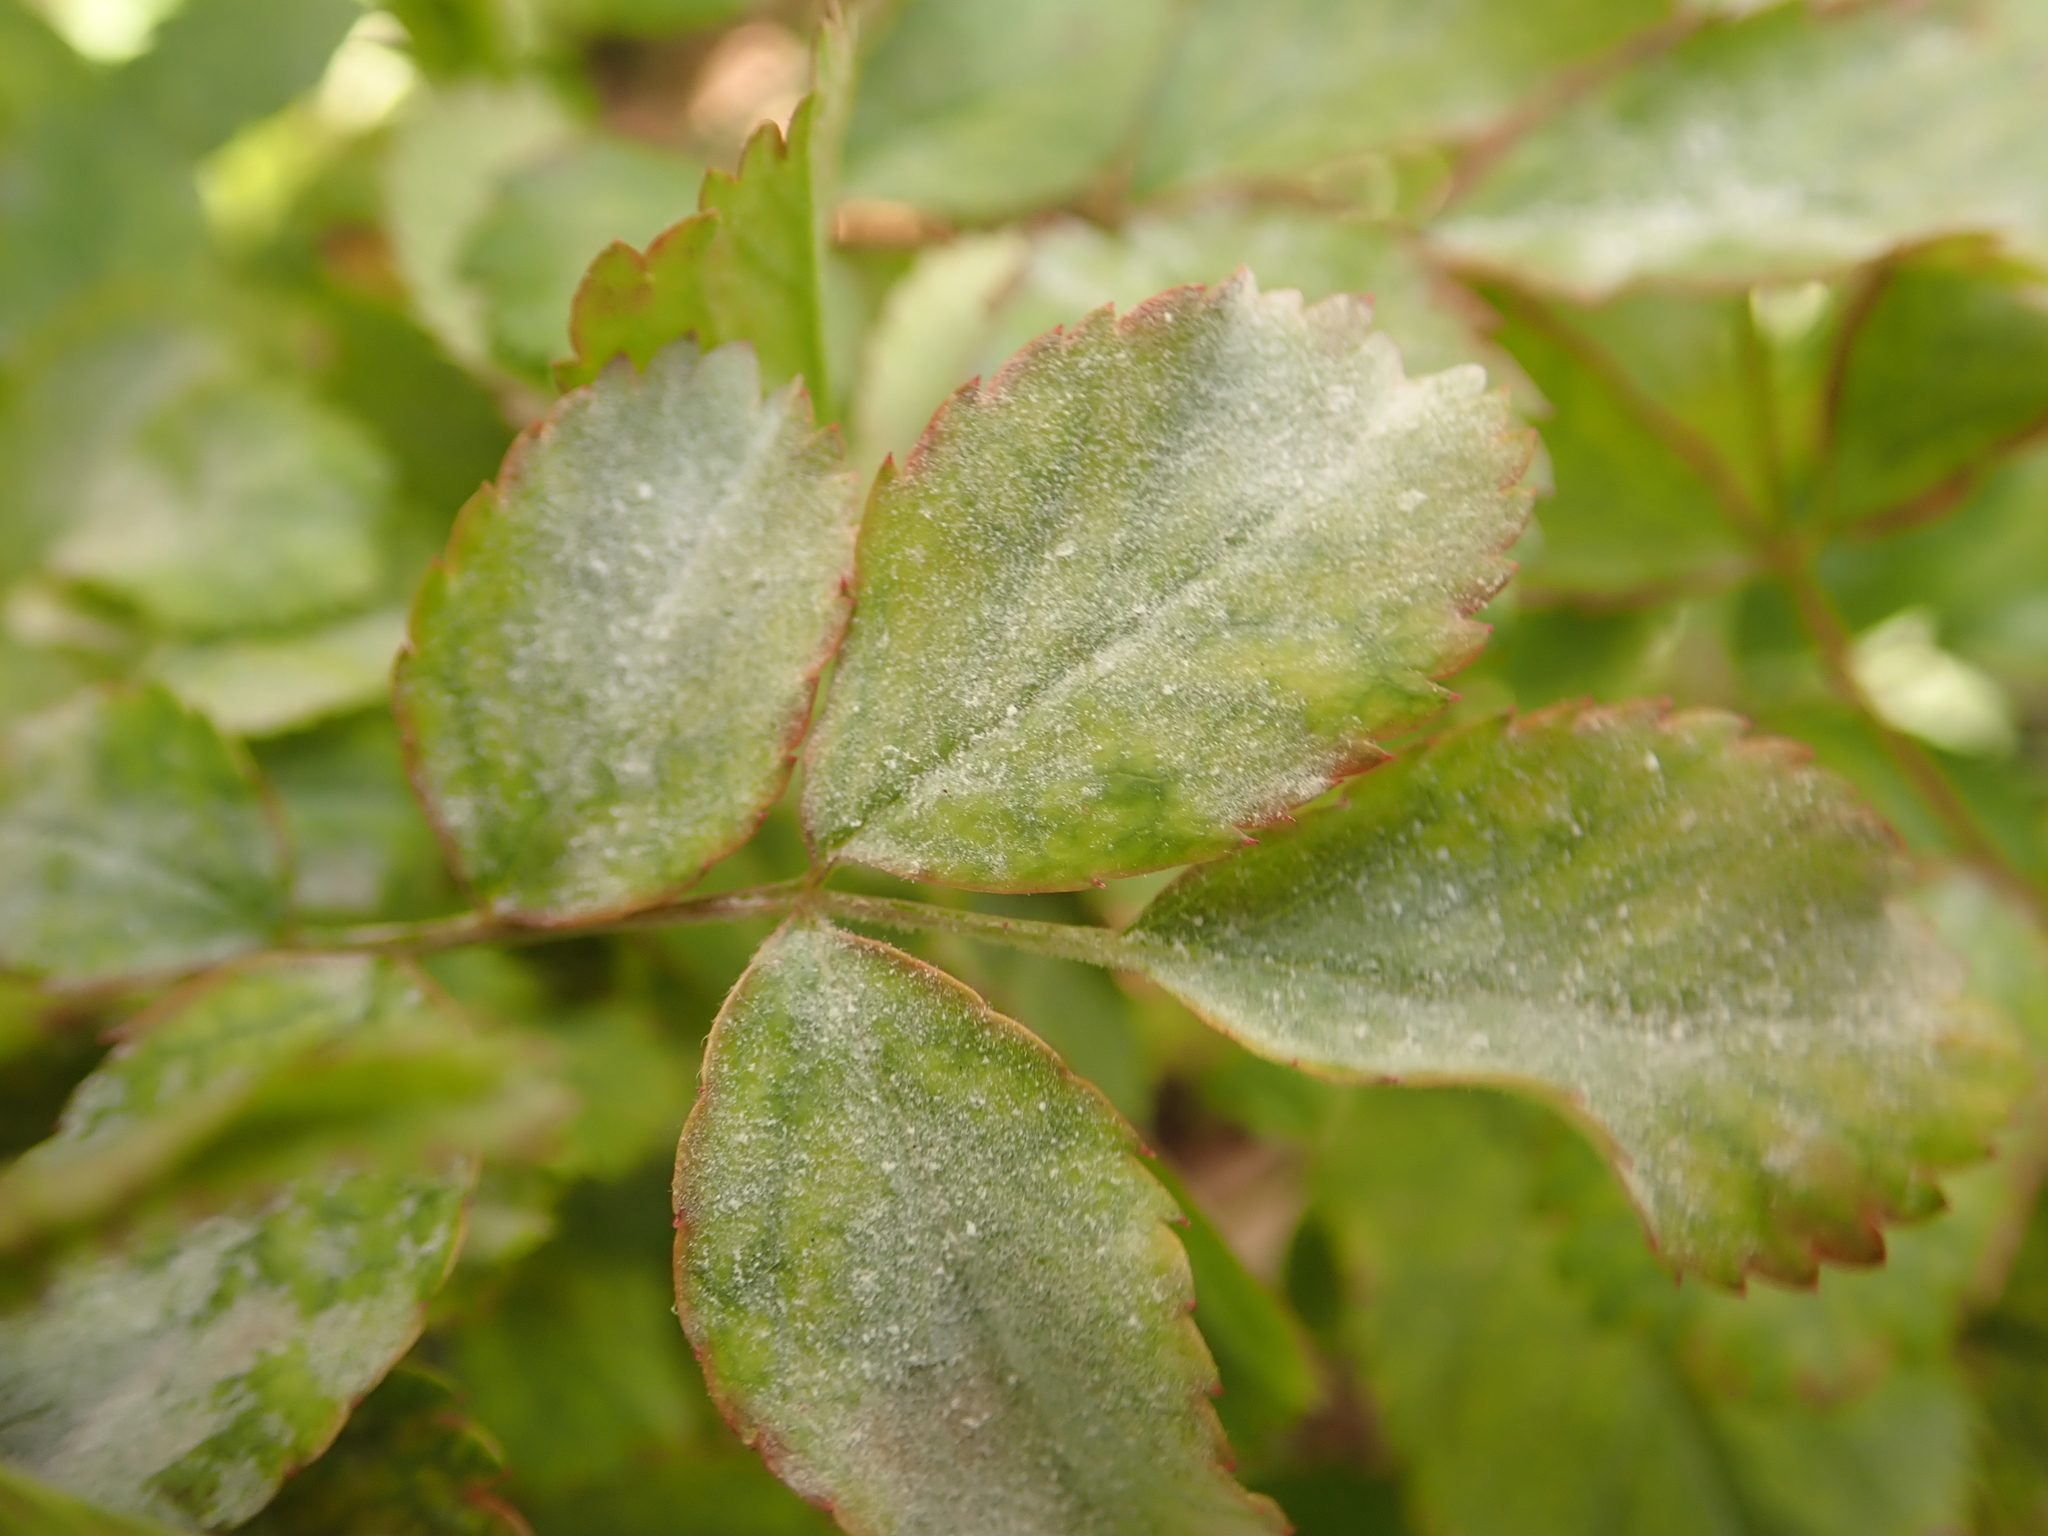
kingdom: Fungi
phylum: Ascomycota
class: Leotiomycetes
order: Helotiales
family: Erysiphaceae
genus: Podosphaera
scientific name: Podosphaera pannosa
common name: Rose mildew
